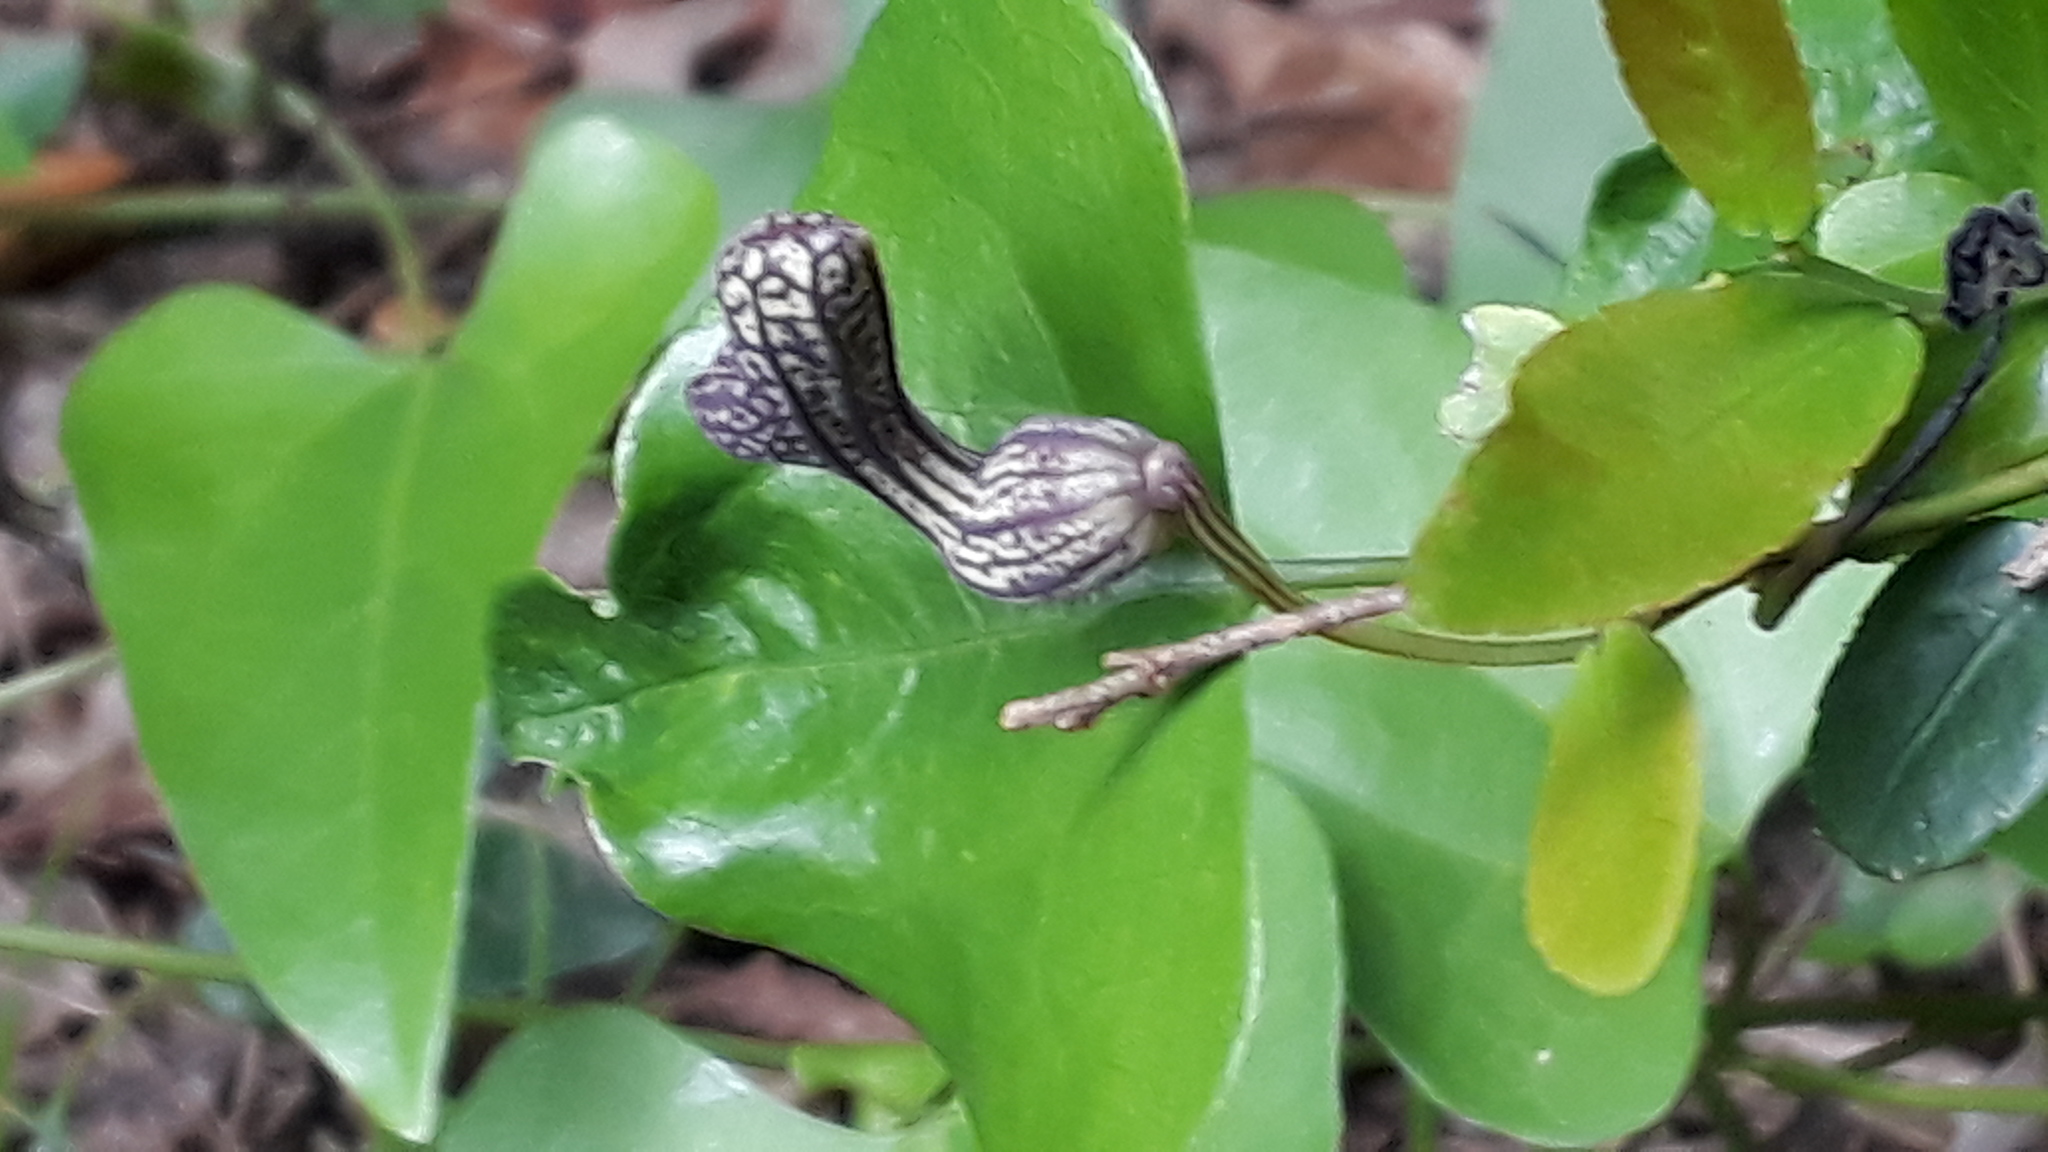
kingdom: Plantae
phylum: Tracheophyta
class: Magnoliopsida
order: Piperales
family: Aristolochiaceae
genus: Aristolochia
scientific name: Aristolochia triangularis
